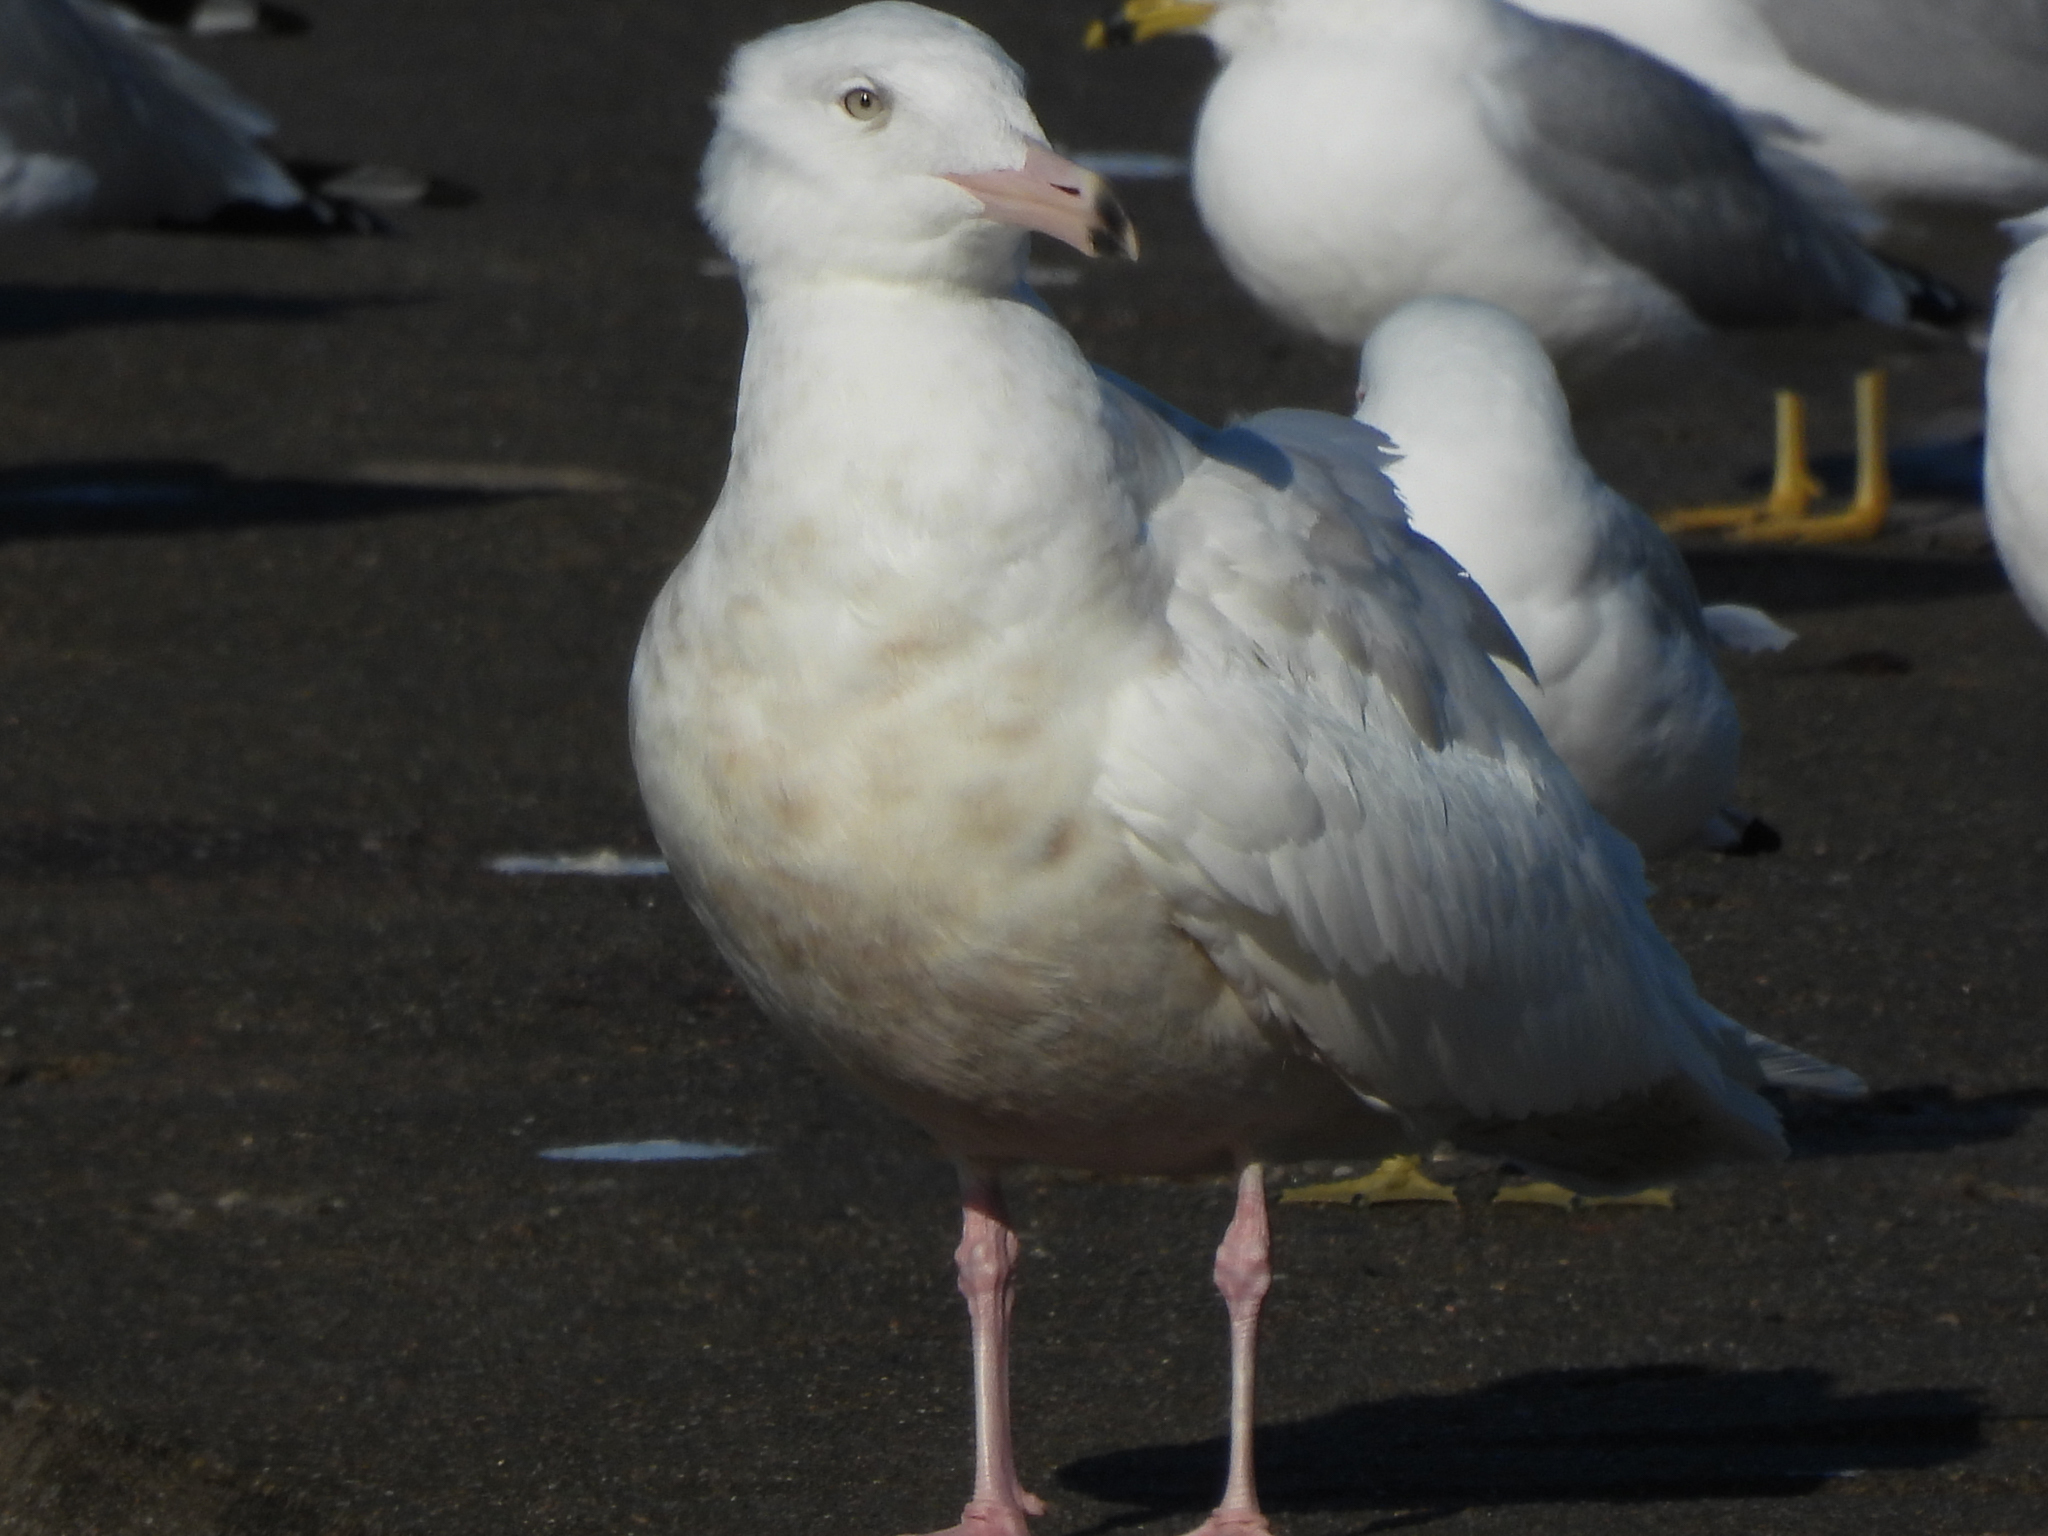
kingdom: Animalia
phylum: Chordata
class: Aves
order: Charadriiformes
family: Laridae
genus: Larus
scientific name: Larus hyperboreus
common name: Glaucous gull
